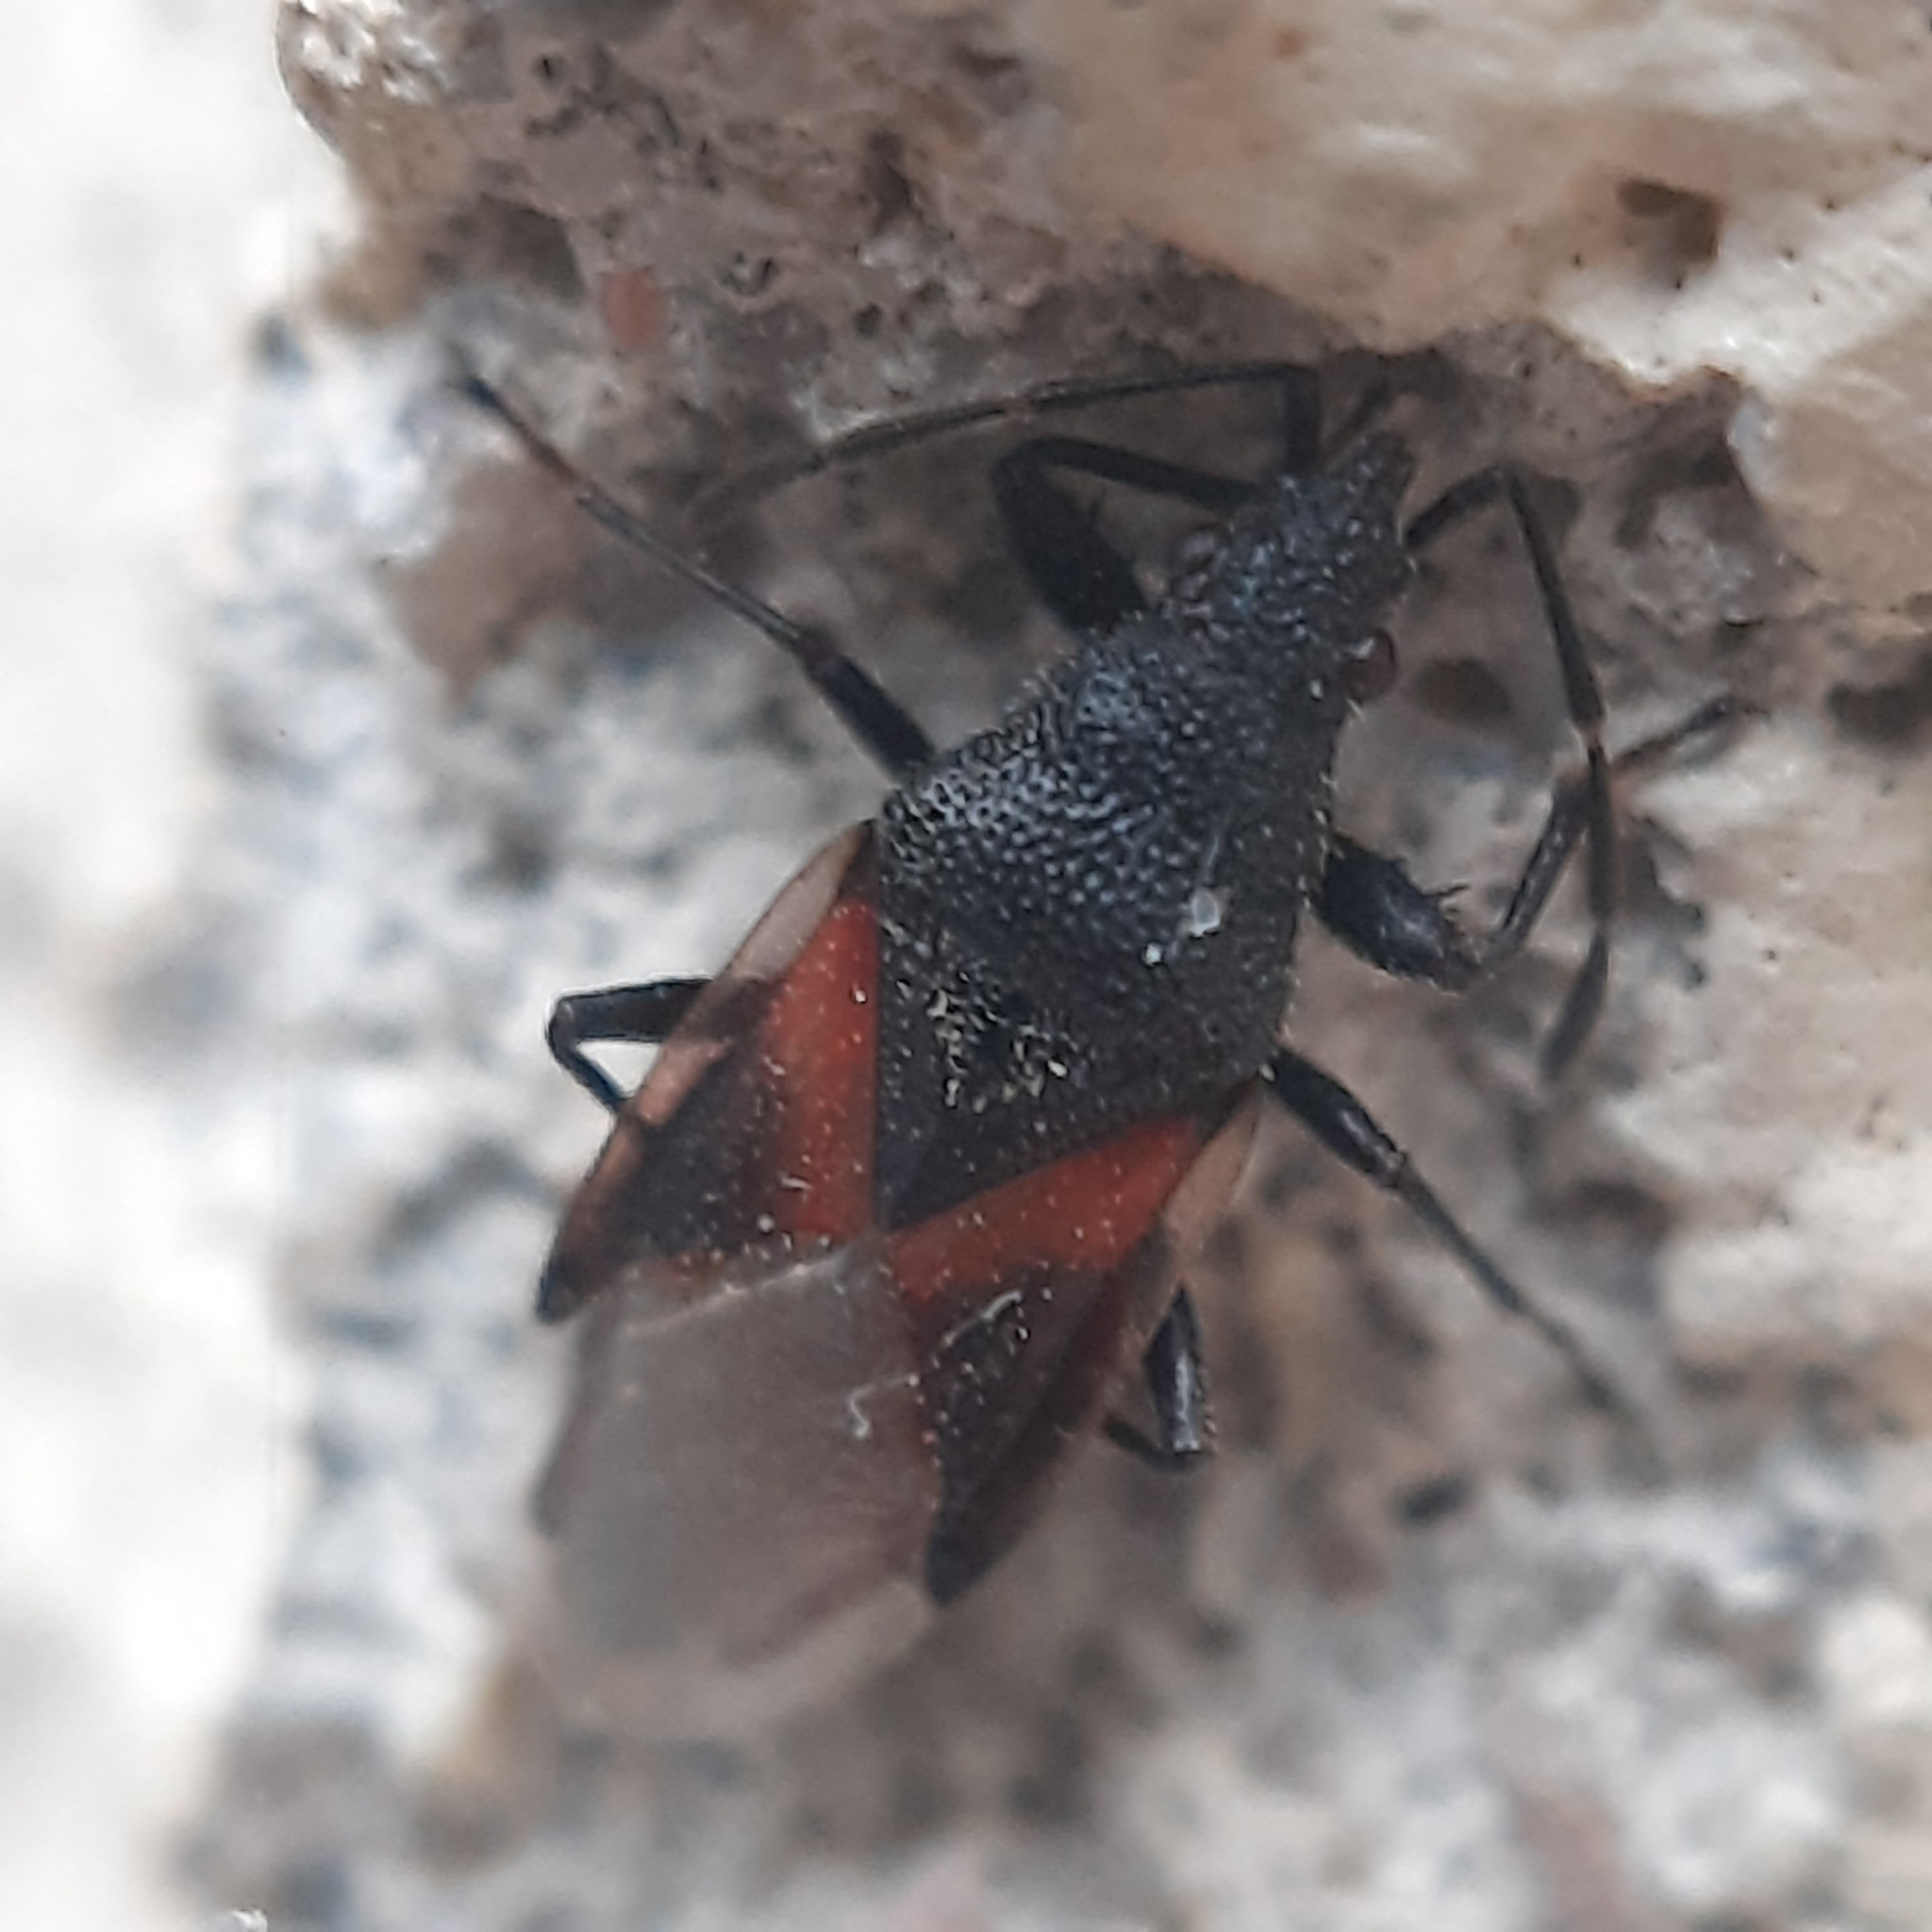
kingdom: Animalia
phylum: Arthropoda
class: Insecta
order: Hemiptera
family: Oxycarenidae
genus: Oxycarenus
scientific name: Oxycarenus lavaterae
